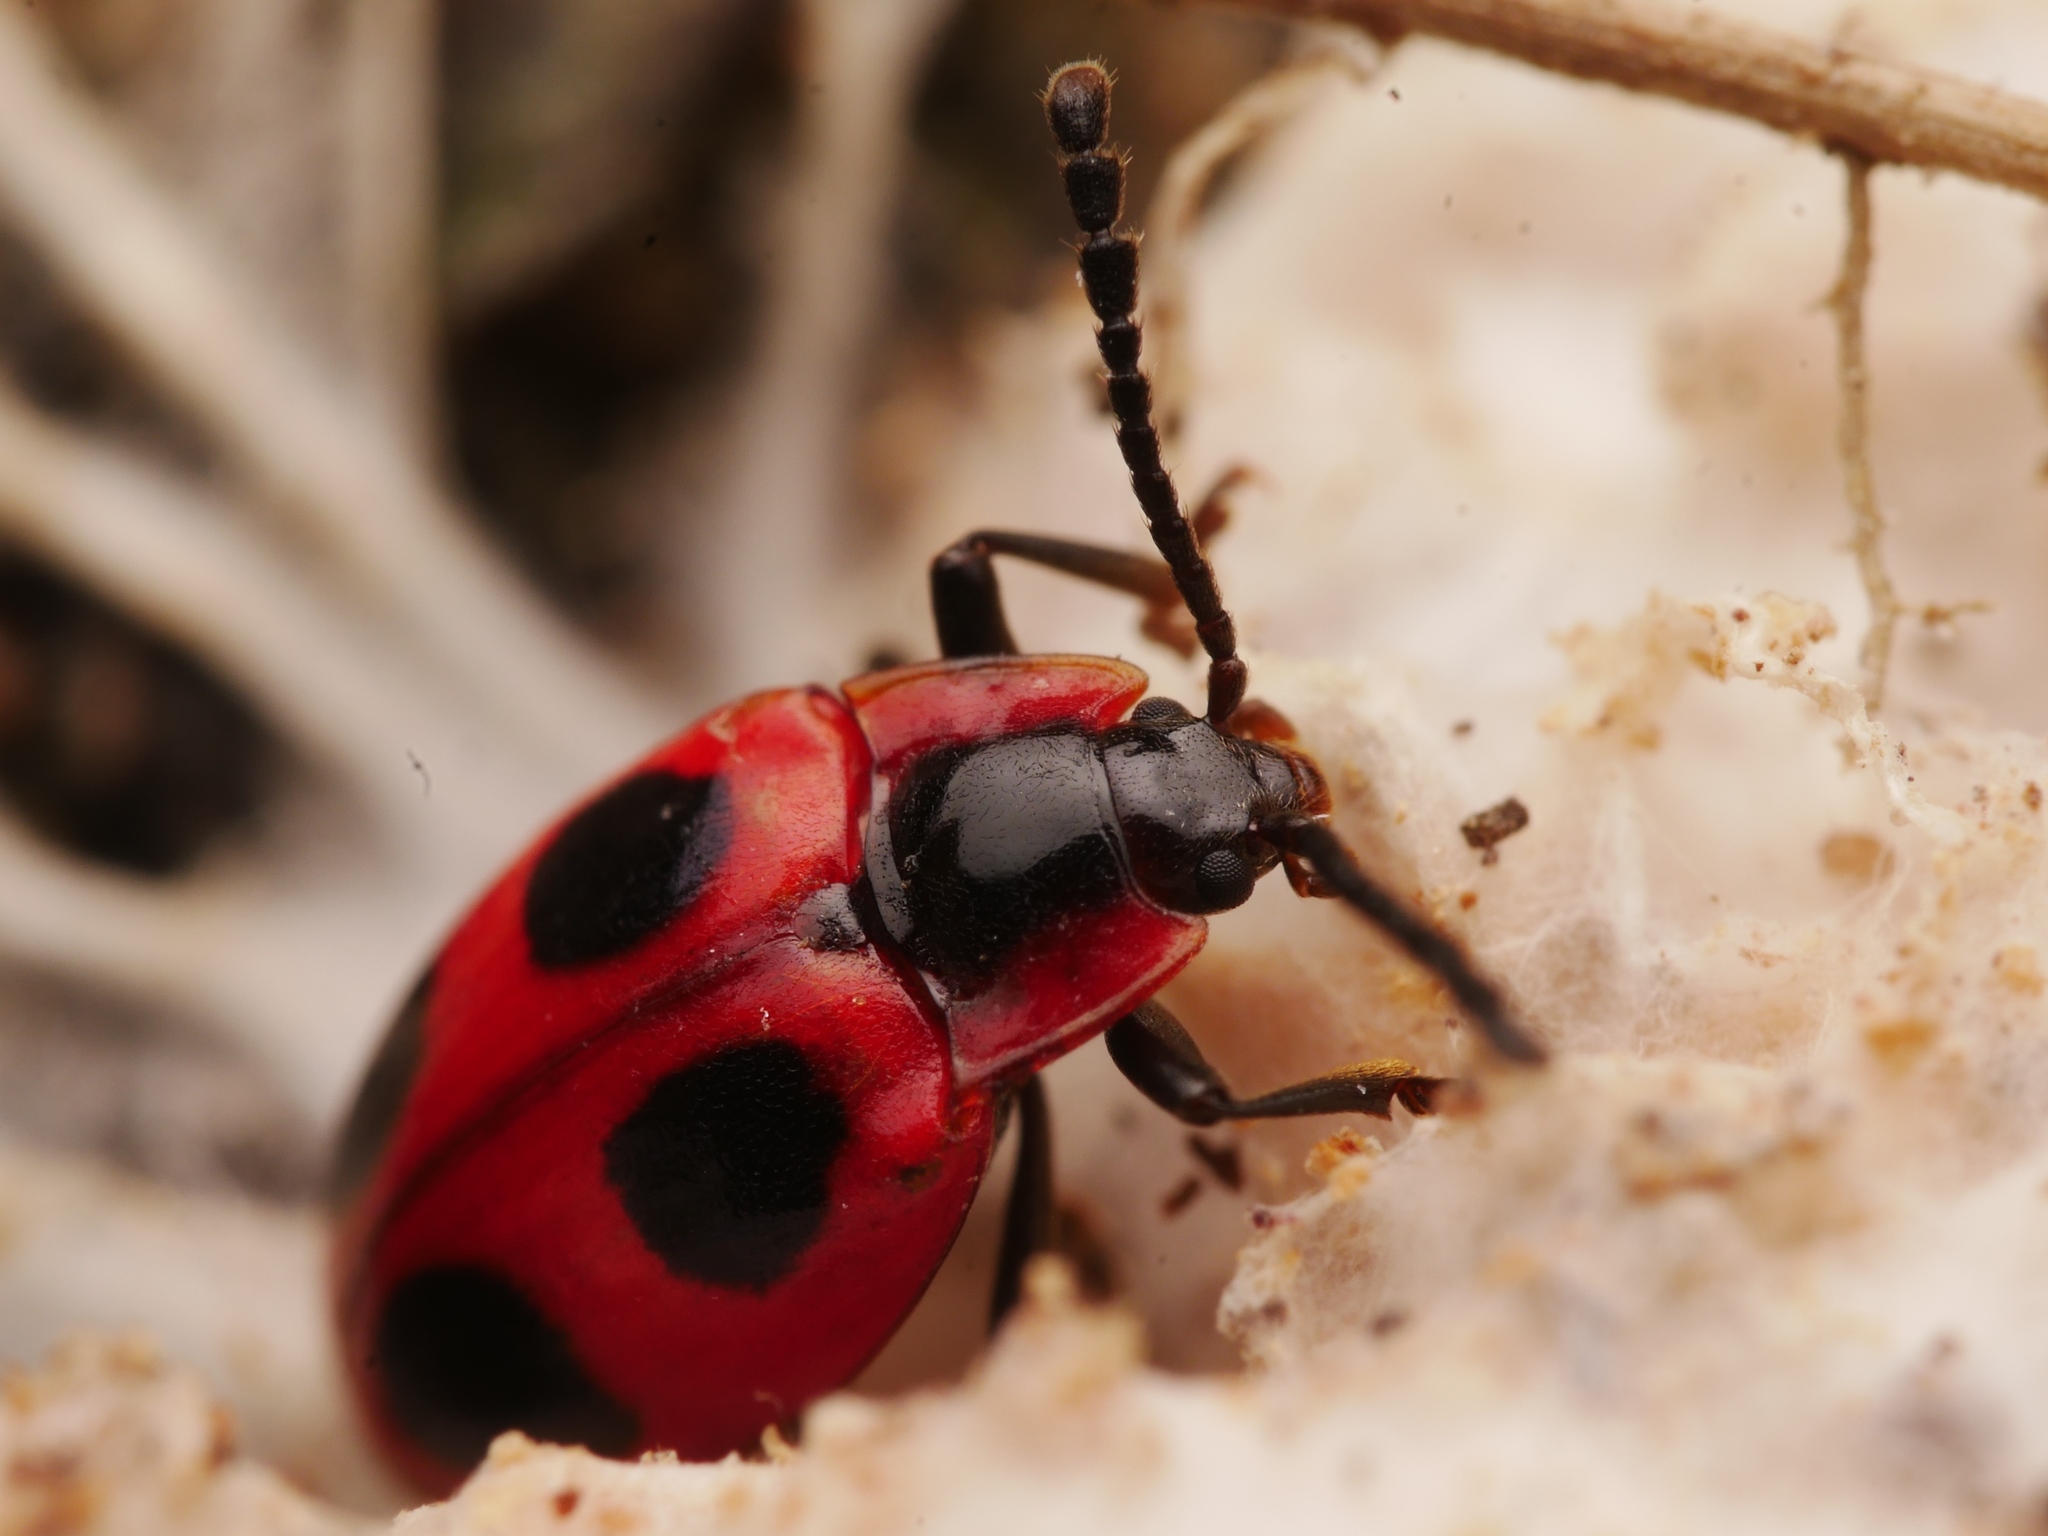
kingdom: Animalia
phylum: Arthropoda
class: Insecta
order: Coleoptera
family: Endomychidae
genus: Endomychus
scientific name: Endomychus coccineus
